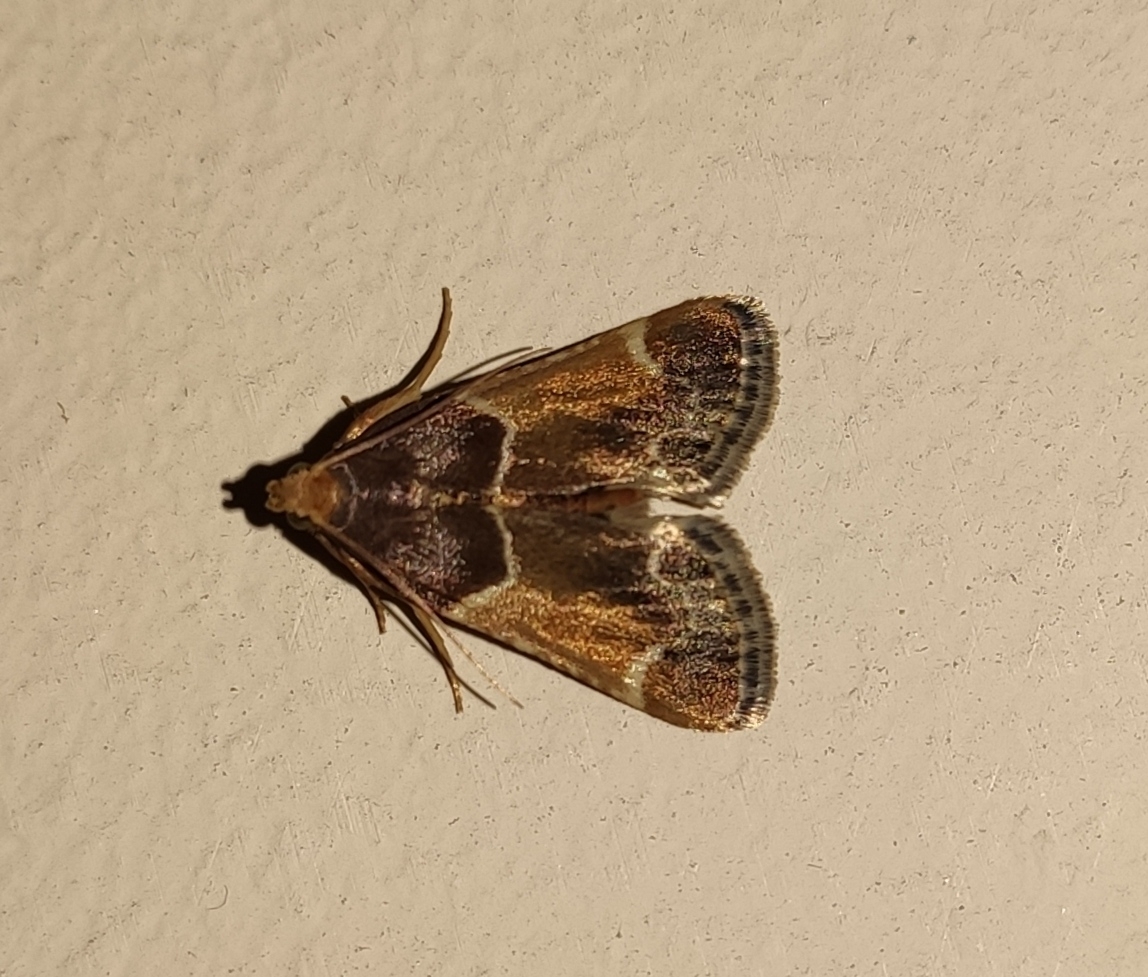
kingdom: Animalia
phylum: Arthropoda
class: Insecta
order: Lepidoptera
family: Pyralidae
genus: Pyralis
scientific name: Pyralis farinalis
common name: Meal moth
